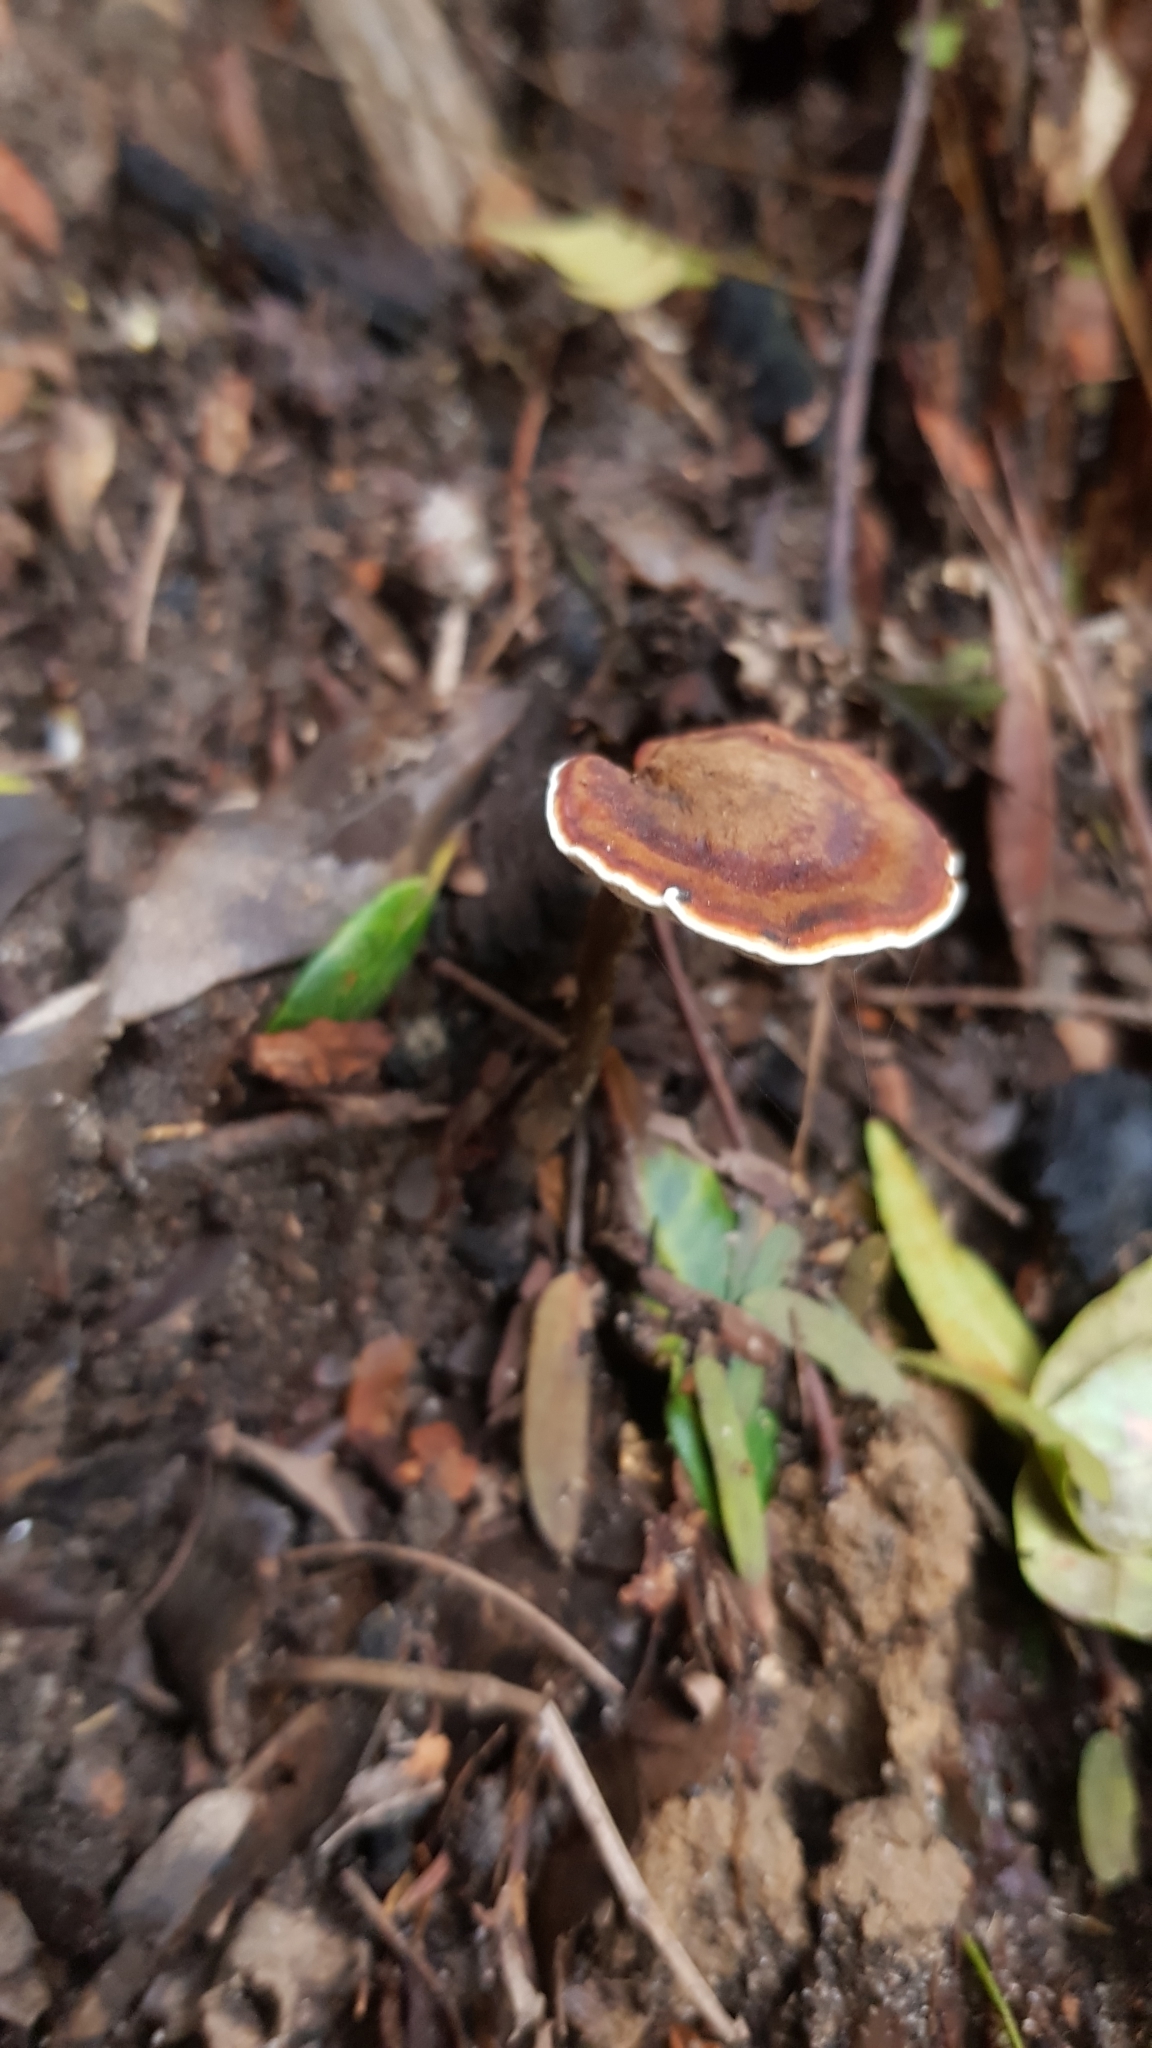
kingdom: Fungi
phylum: Basidiomycota
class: Agaricomycetes
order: Polyporales
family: Ganodermataceae
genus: Sanguinoderma
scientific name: Sanguinoderma rude
